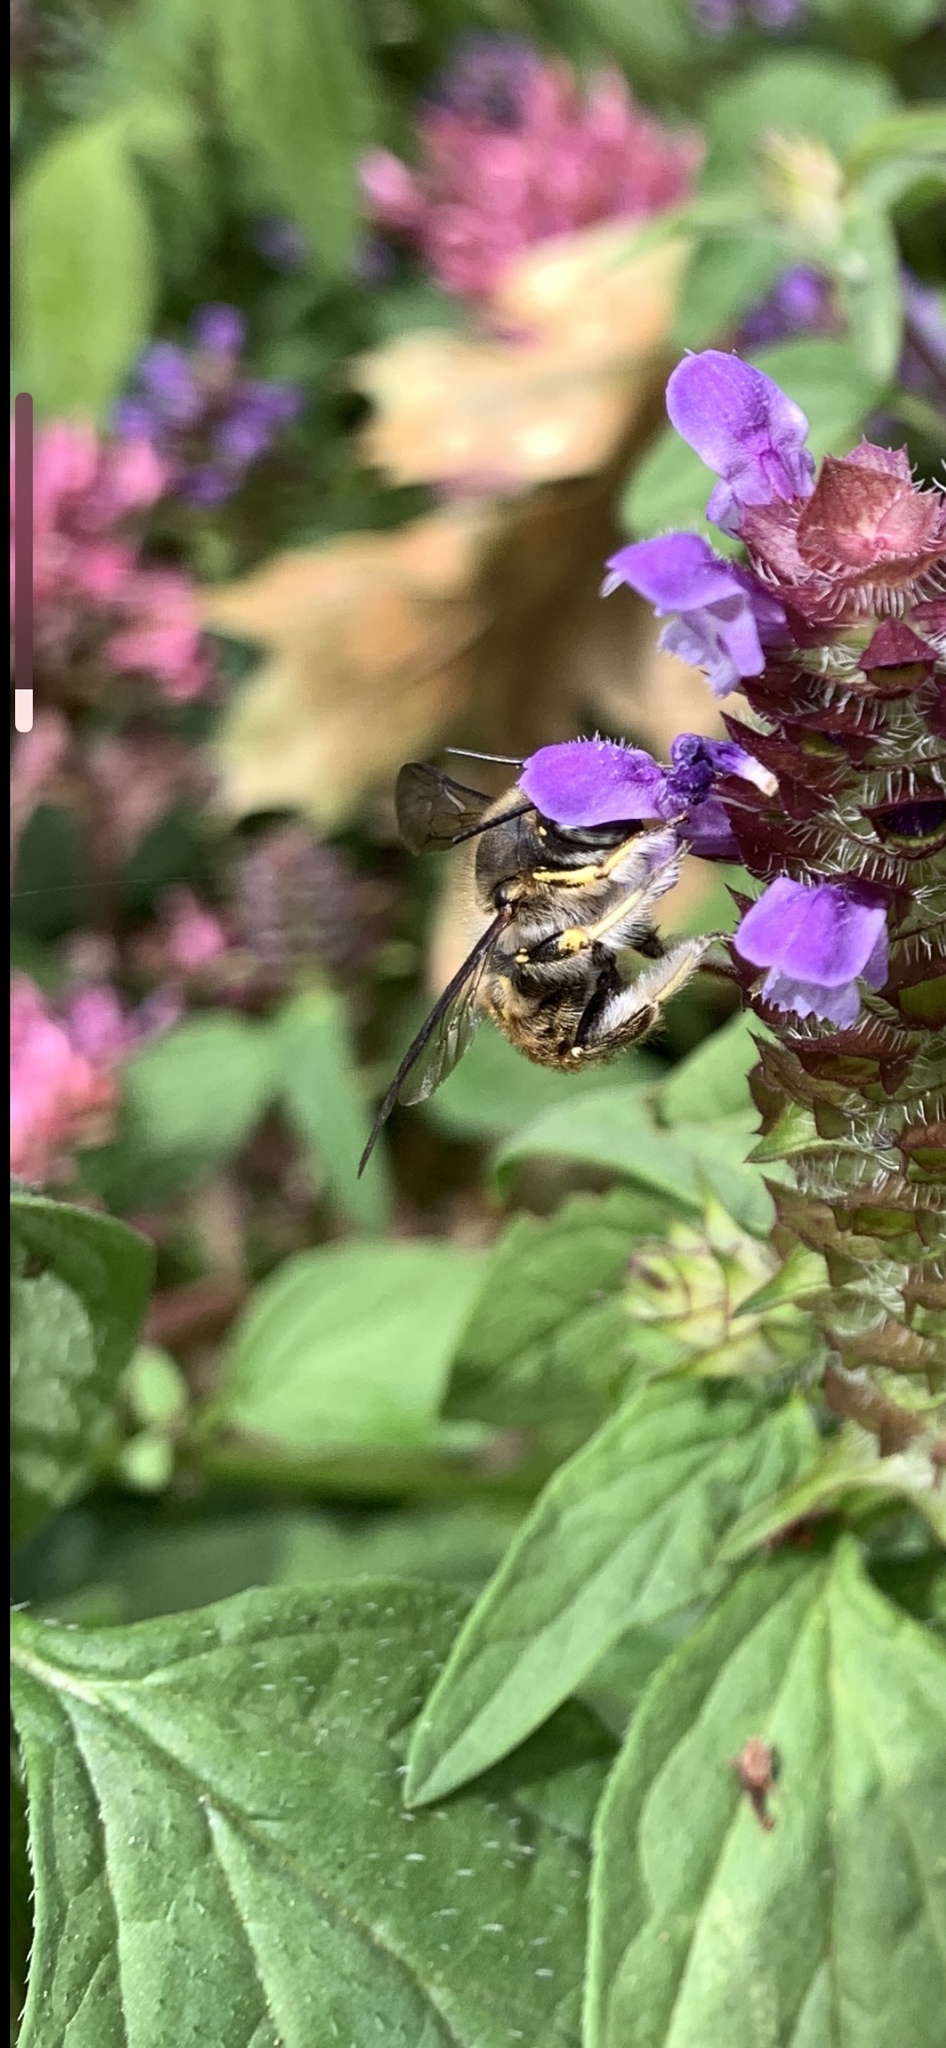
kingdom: Animalia
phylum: Arthropoda
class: Insecta
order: Hymenoptera
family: Megachilidae
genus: Anthidium
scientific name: Anthidium manicatum
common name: Wool carder bee
